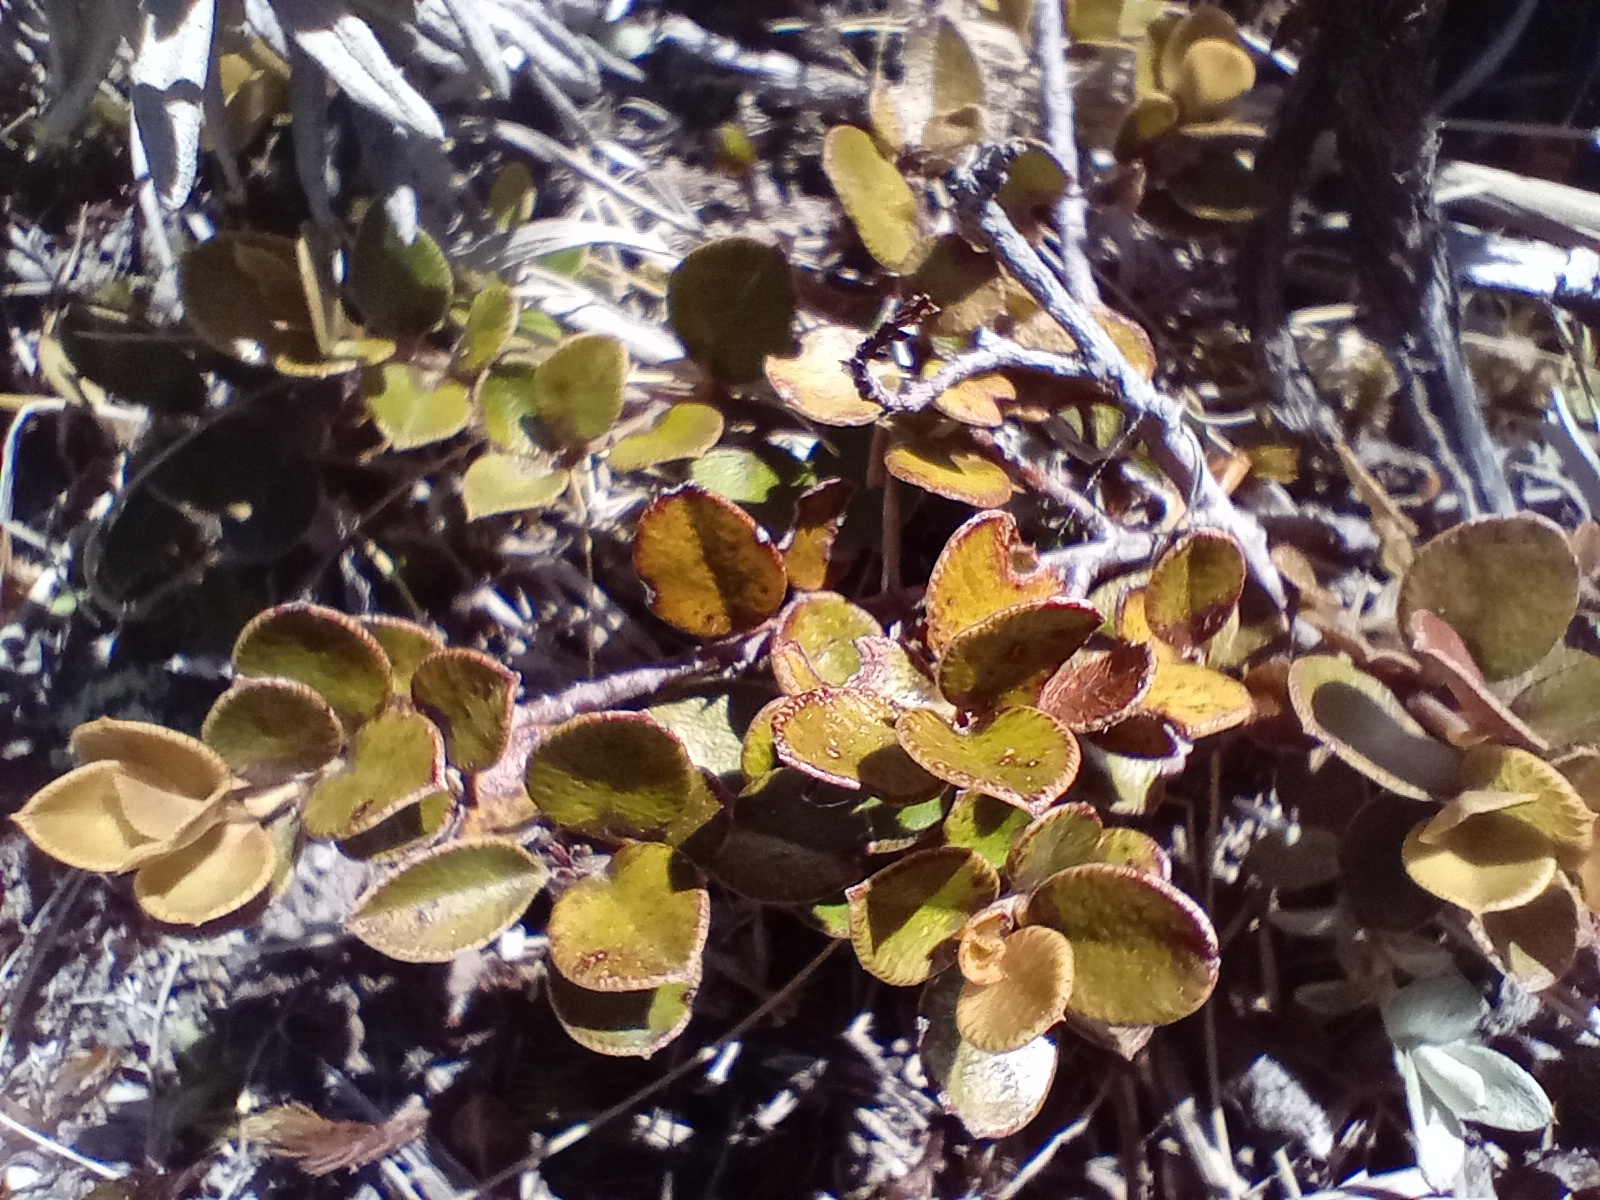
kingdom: Plantae
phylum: Tracheophyta
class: Magnoliopsida
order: Ericales
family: Primulaceae
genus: Myrsine
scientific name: Myrsine nummularia
